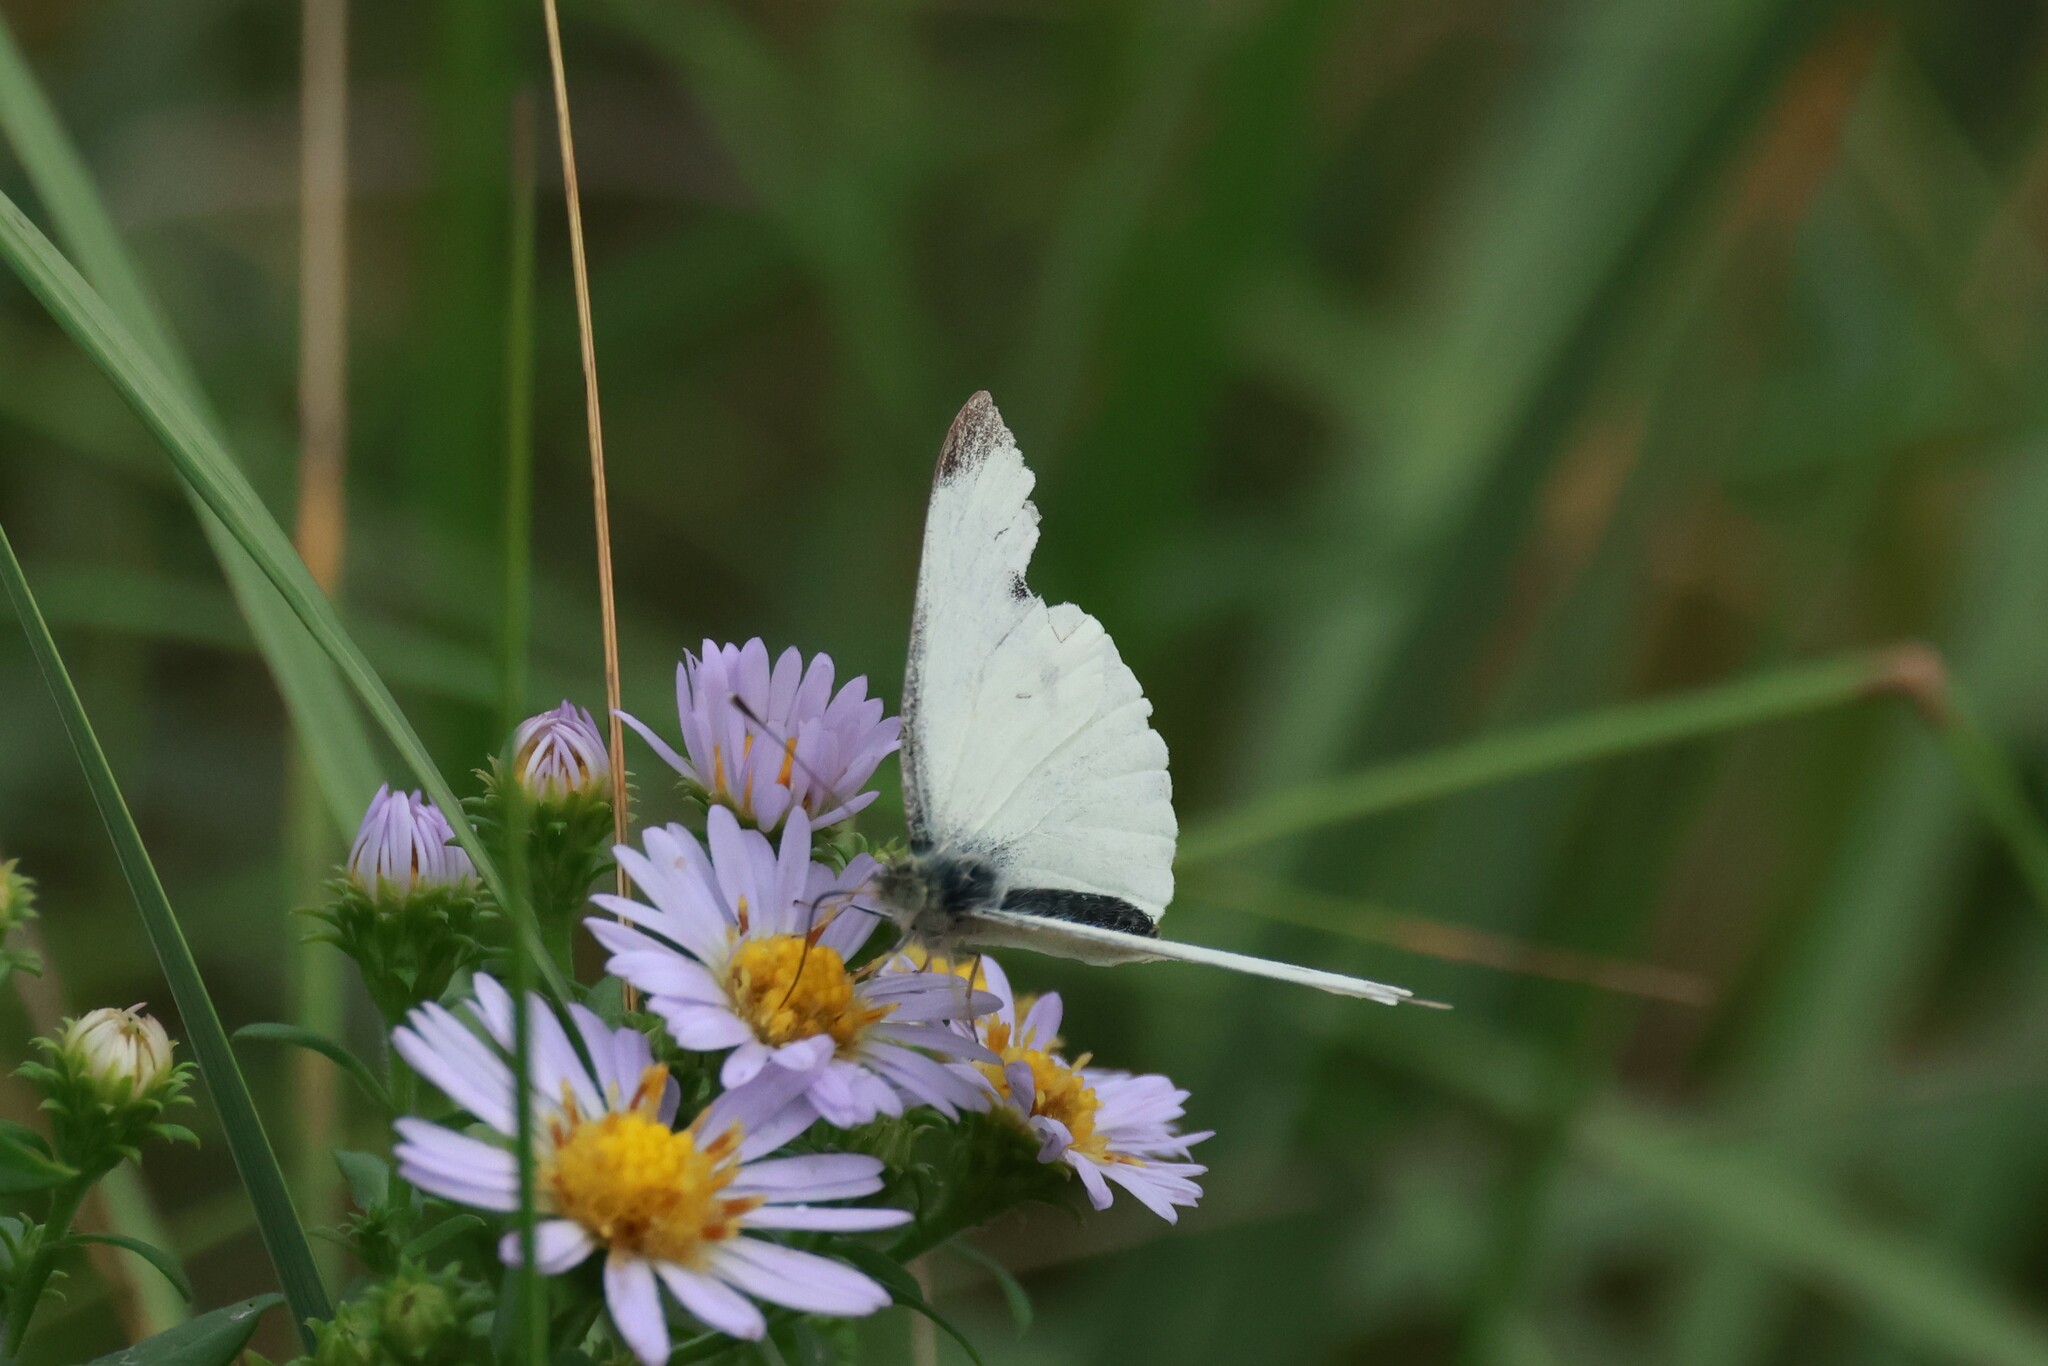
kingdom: Animalia
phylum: Arthropoda
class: Insecta
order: Lepidoptera
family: Pieridae
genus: Pieris
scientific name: Pieris rapae
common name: Small white
